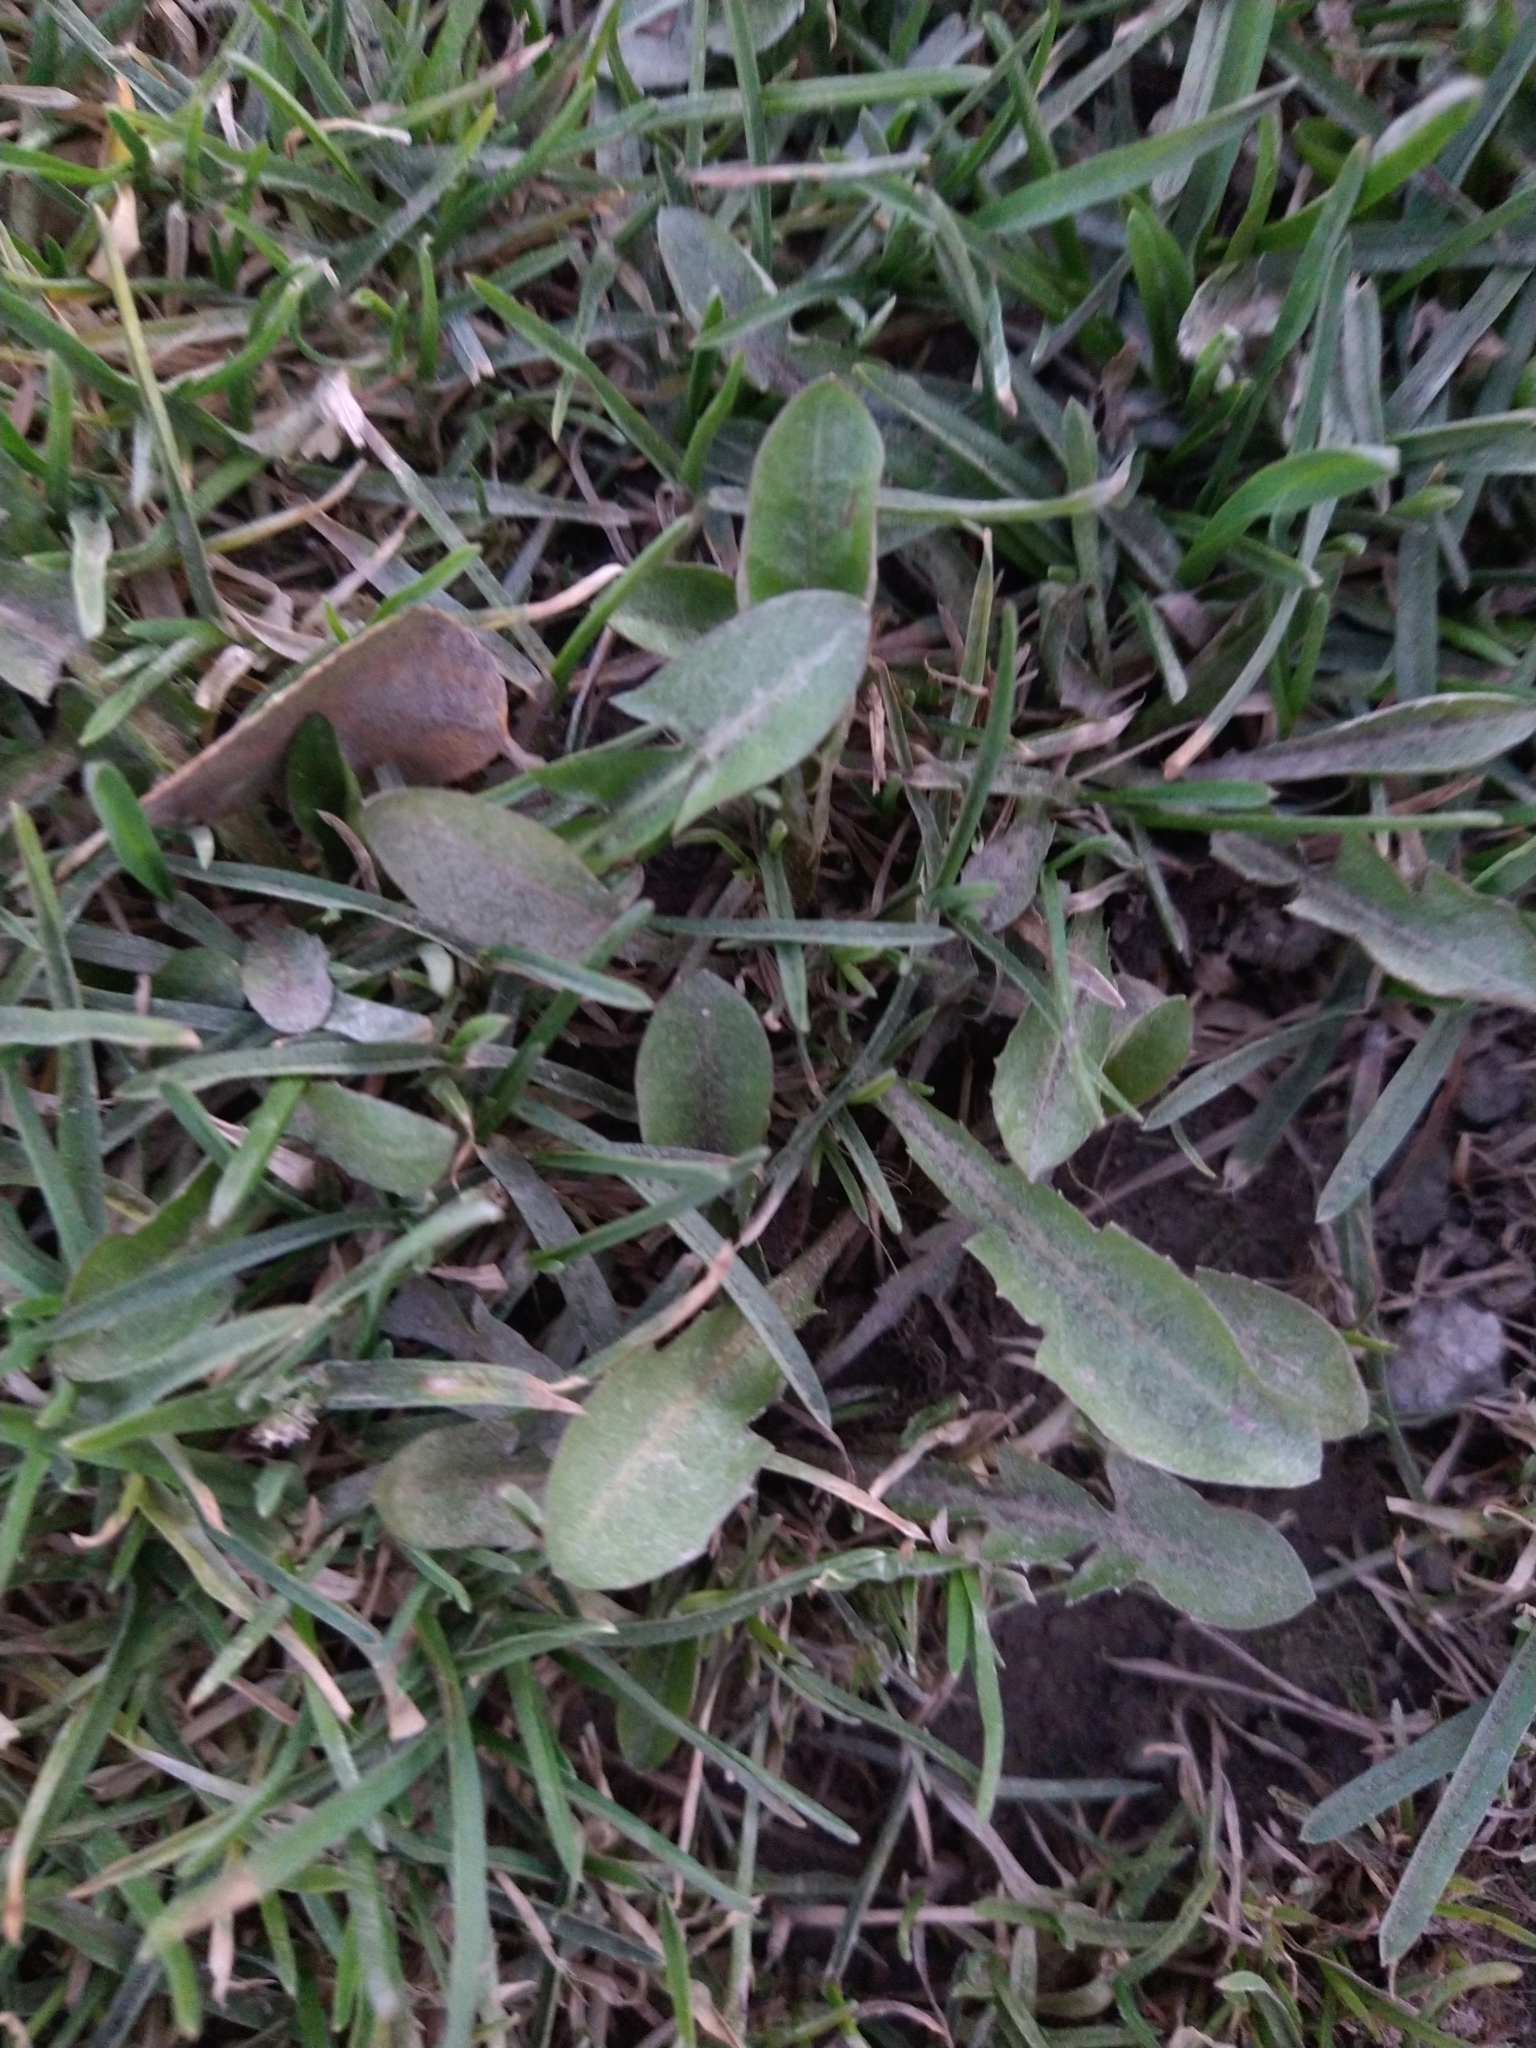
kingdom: Plantae
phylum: Tracheophyta
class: Magnoliopsida
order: Asterales
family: Asteraceae
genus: Taraxacum
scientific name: Taraxacum officinale
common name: Common dandelion
